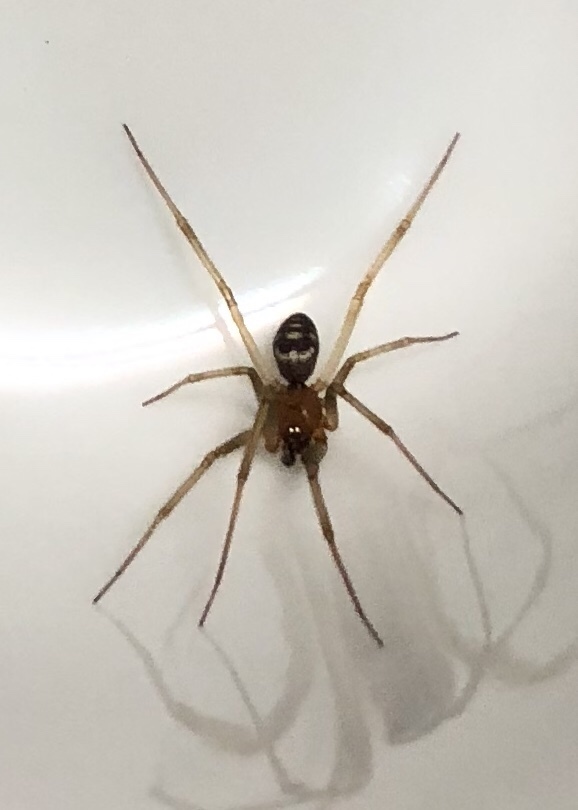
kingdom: Animalia
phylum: Arthropoda
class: Arachnida
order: Araneae
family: Theridiidae
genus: Steatoda
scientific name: Steatoda grossa
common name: False black widow
